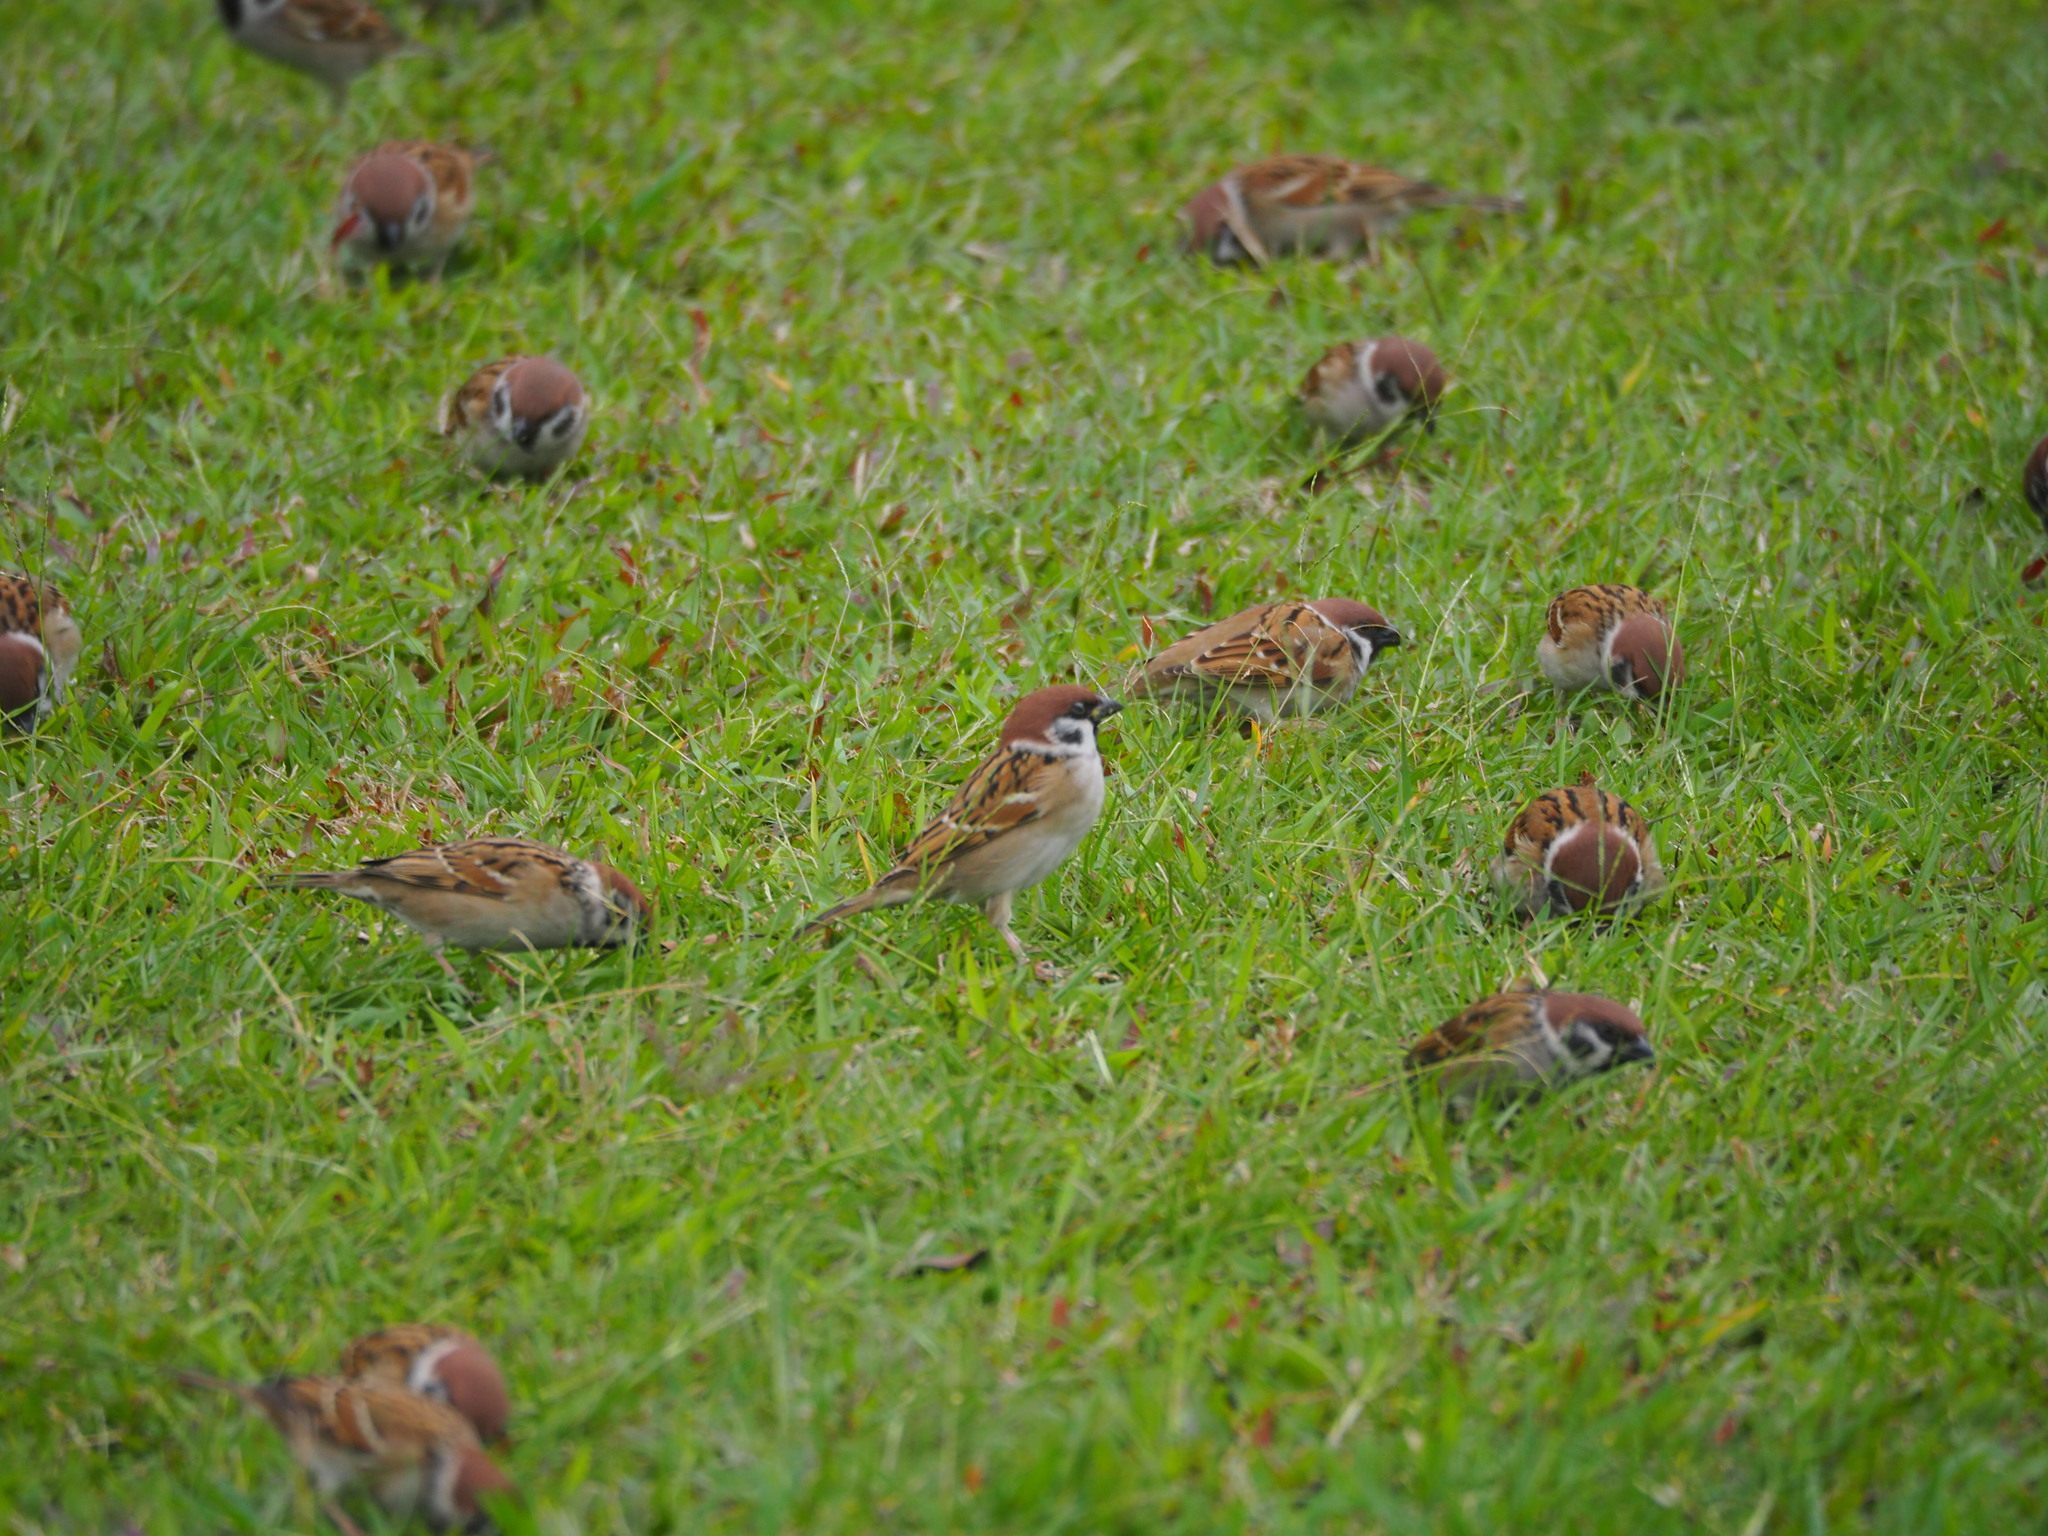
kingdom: Animalia
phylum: Chordata
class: Aves
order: Passeriformes
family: Passeridae
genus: Passer
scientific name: Passer montanus
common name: Eurasian tree sparrow
